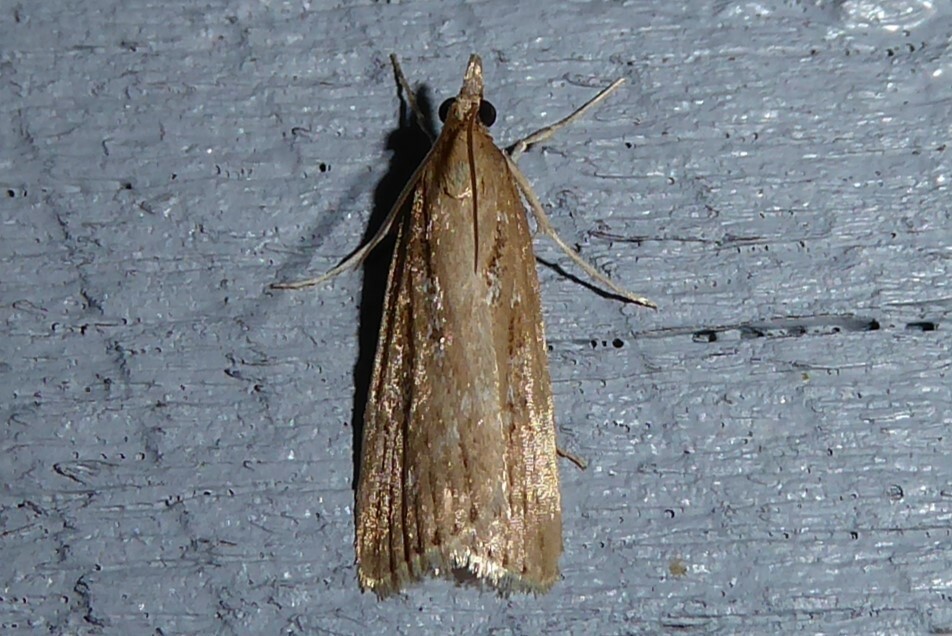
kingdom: Animalia
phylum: Arthropoda
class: Insecta
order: Lepidoptera
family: Crambidae
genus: Eudonia
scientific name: Eudonia octophora
